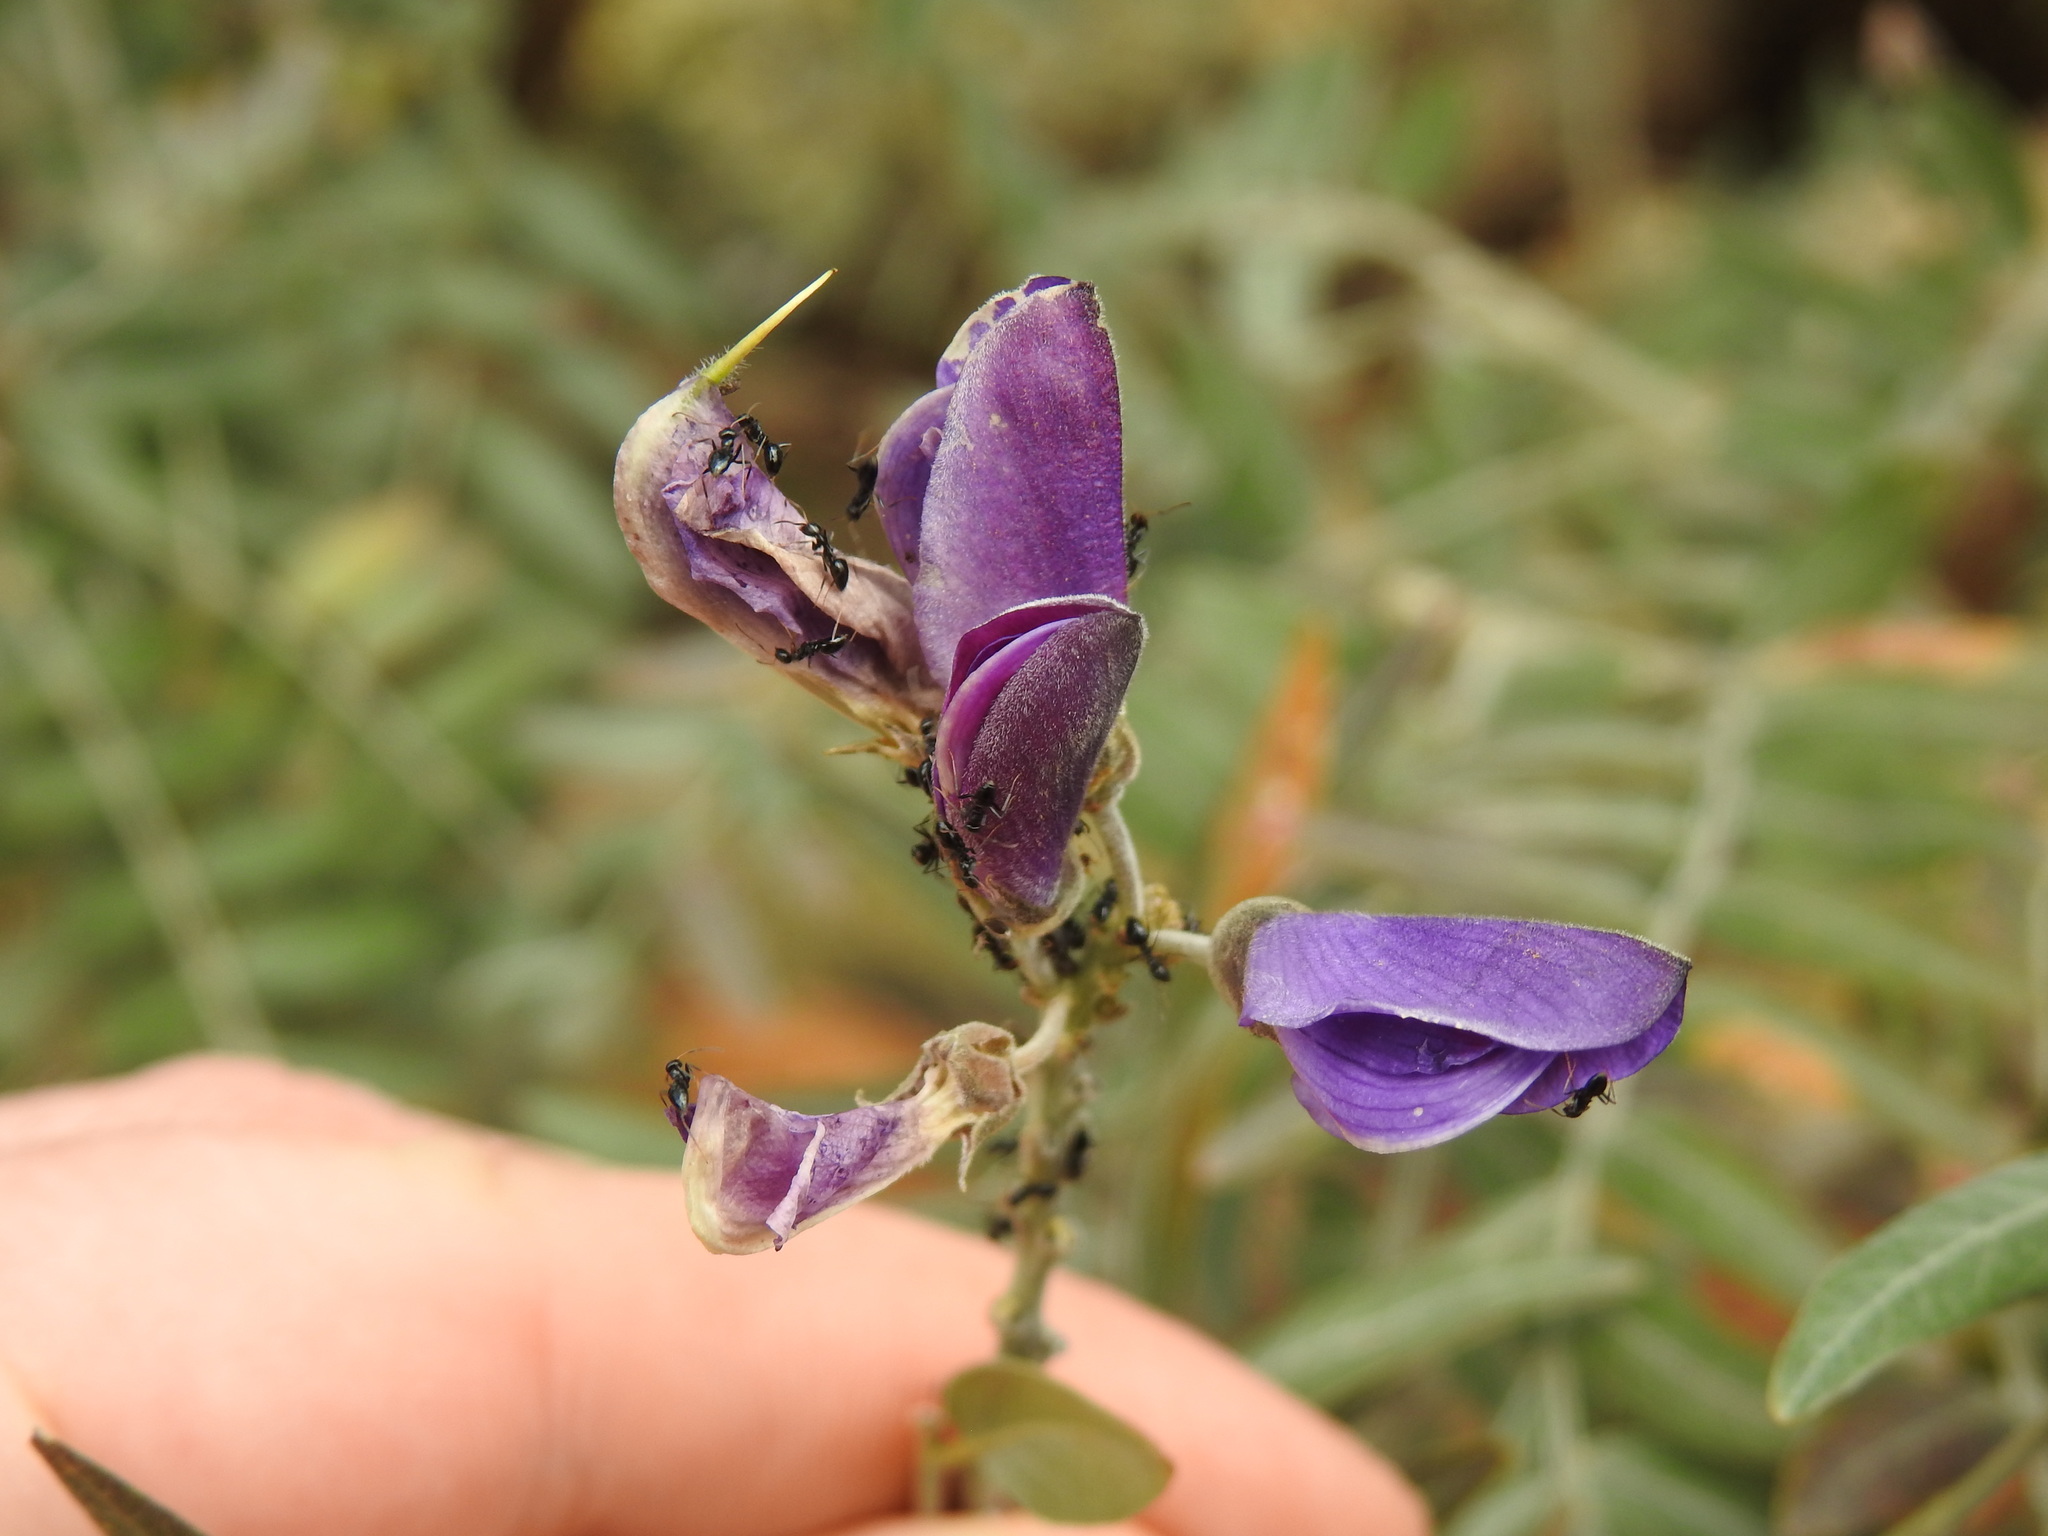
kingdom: Plantae
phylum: Tracheophyta
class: Magnoliopsida
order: Fabales
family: Fabaceae
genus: Mundulea
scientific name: Mundulea sericea
